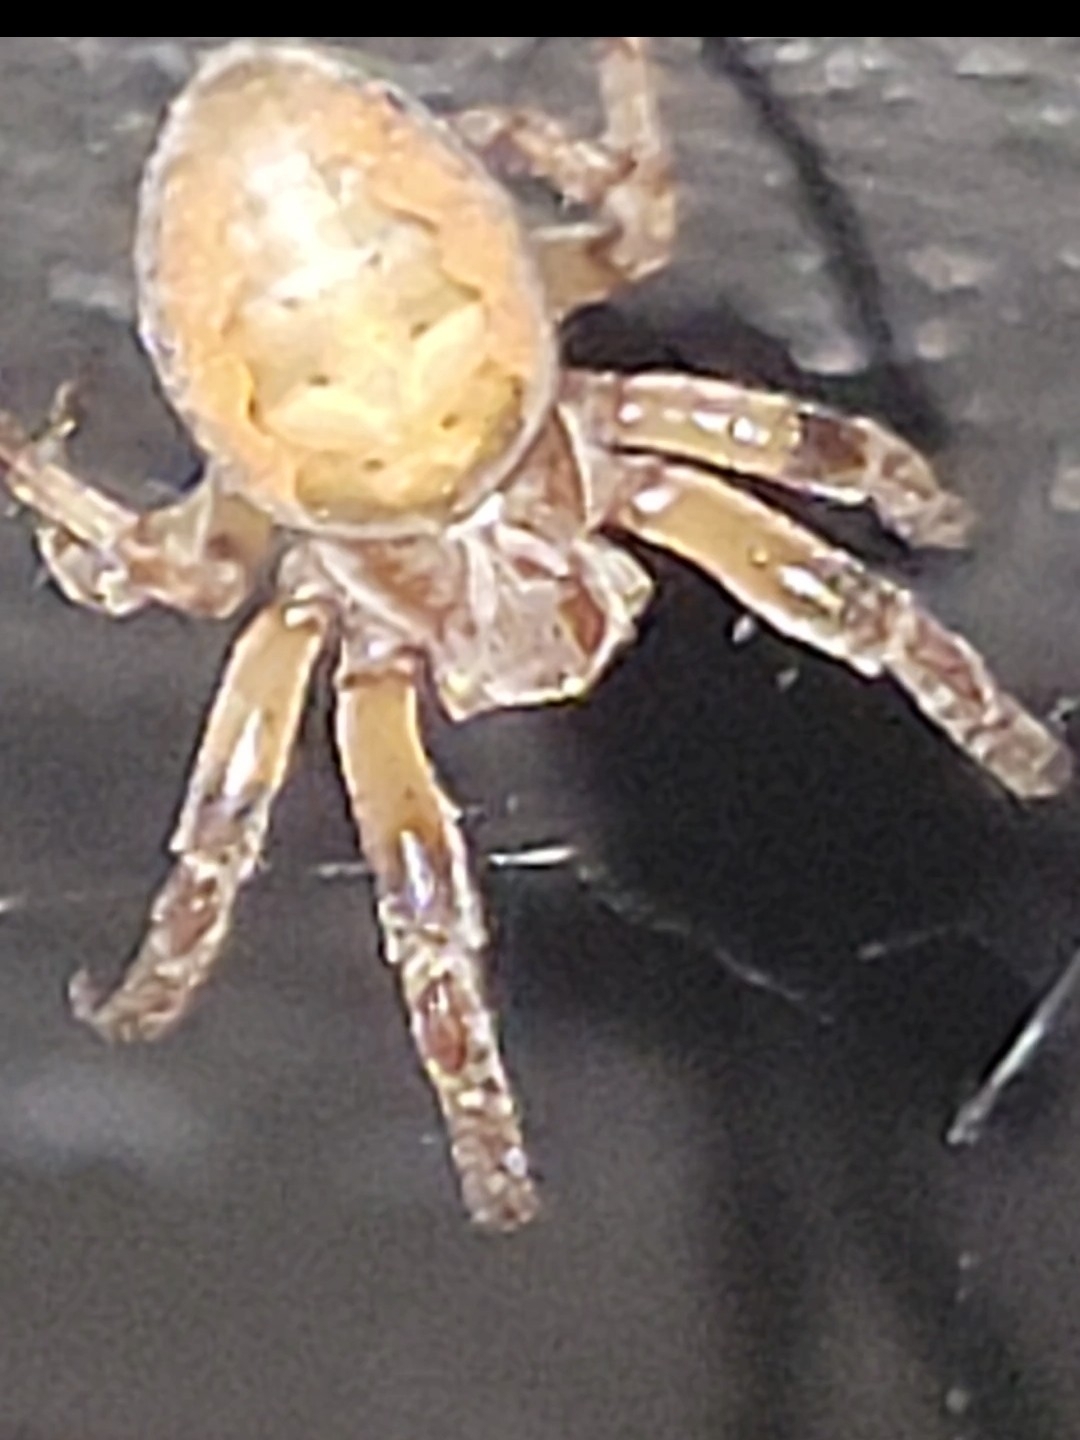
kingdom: Animalia
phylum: Arthropoda
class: Arachnida
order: Araneae
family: Araneidae
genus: Larinioides
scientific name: Larinioides cornutus
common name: Furrow orbweaver
